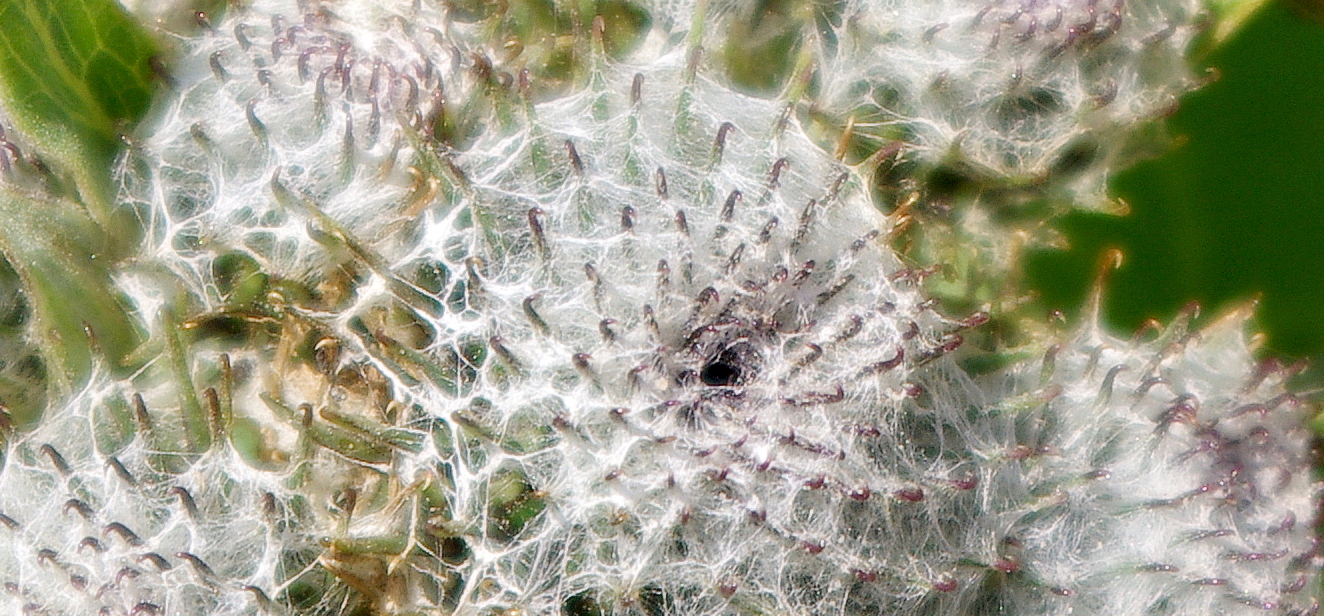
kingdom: Plantae
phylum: Tracheophyta
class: Magnoliopsida
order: Asterales
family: Asteraceae
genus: Arctium
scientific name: Arctium tomentosum
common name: Woolly burdock
